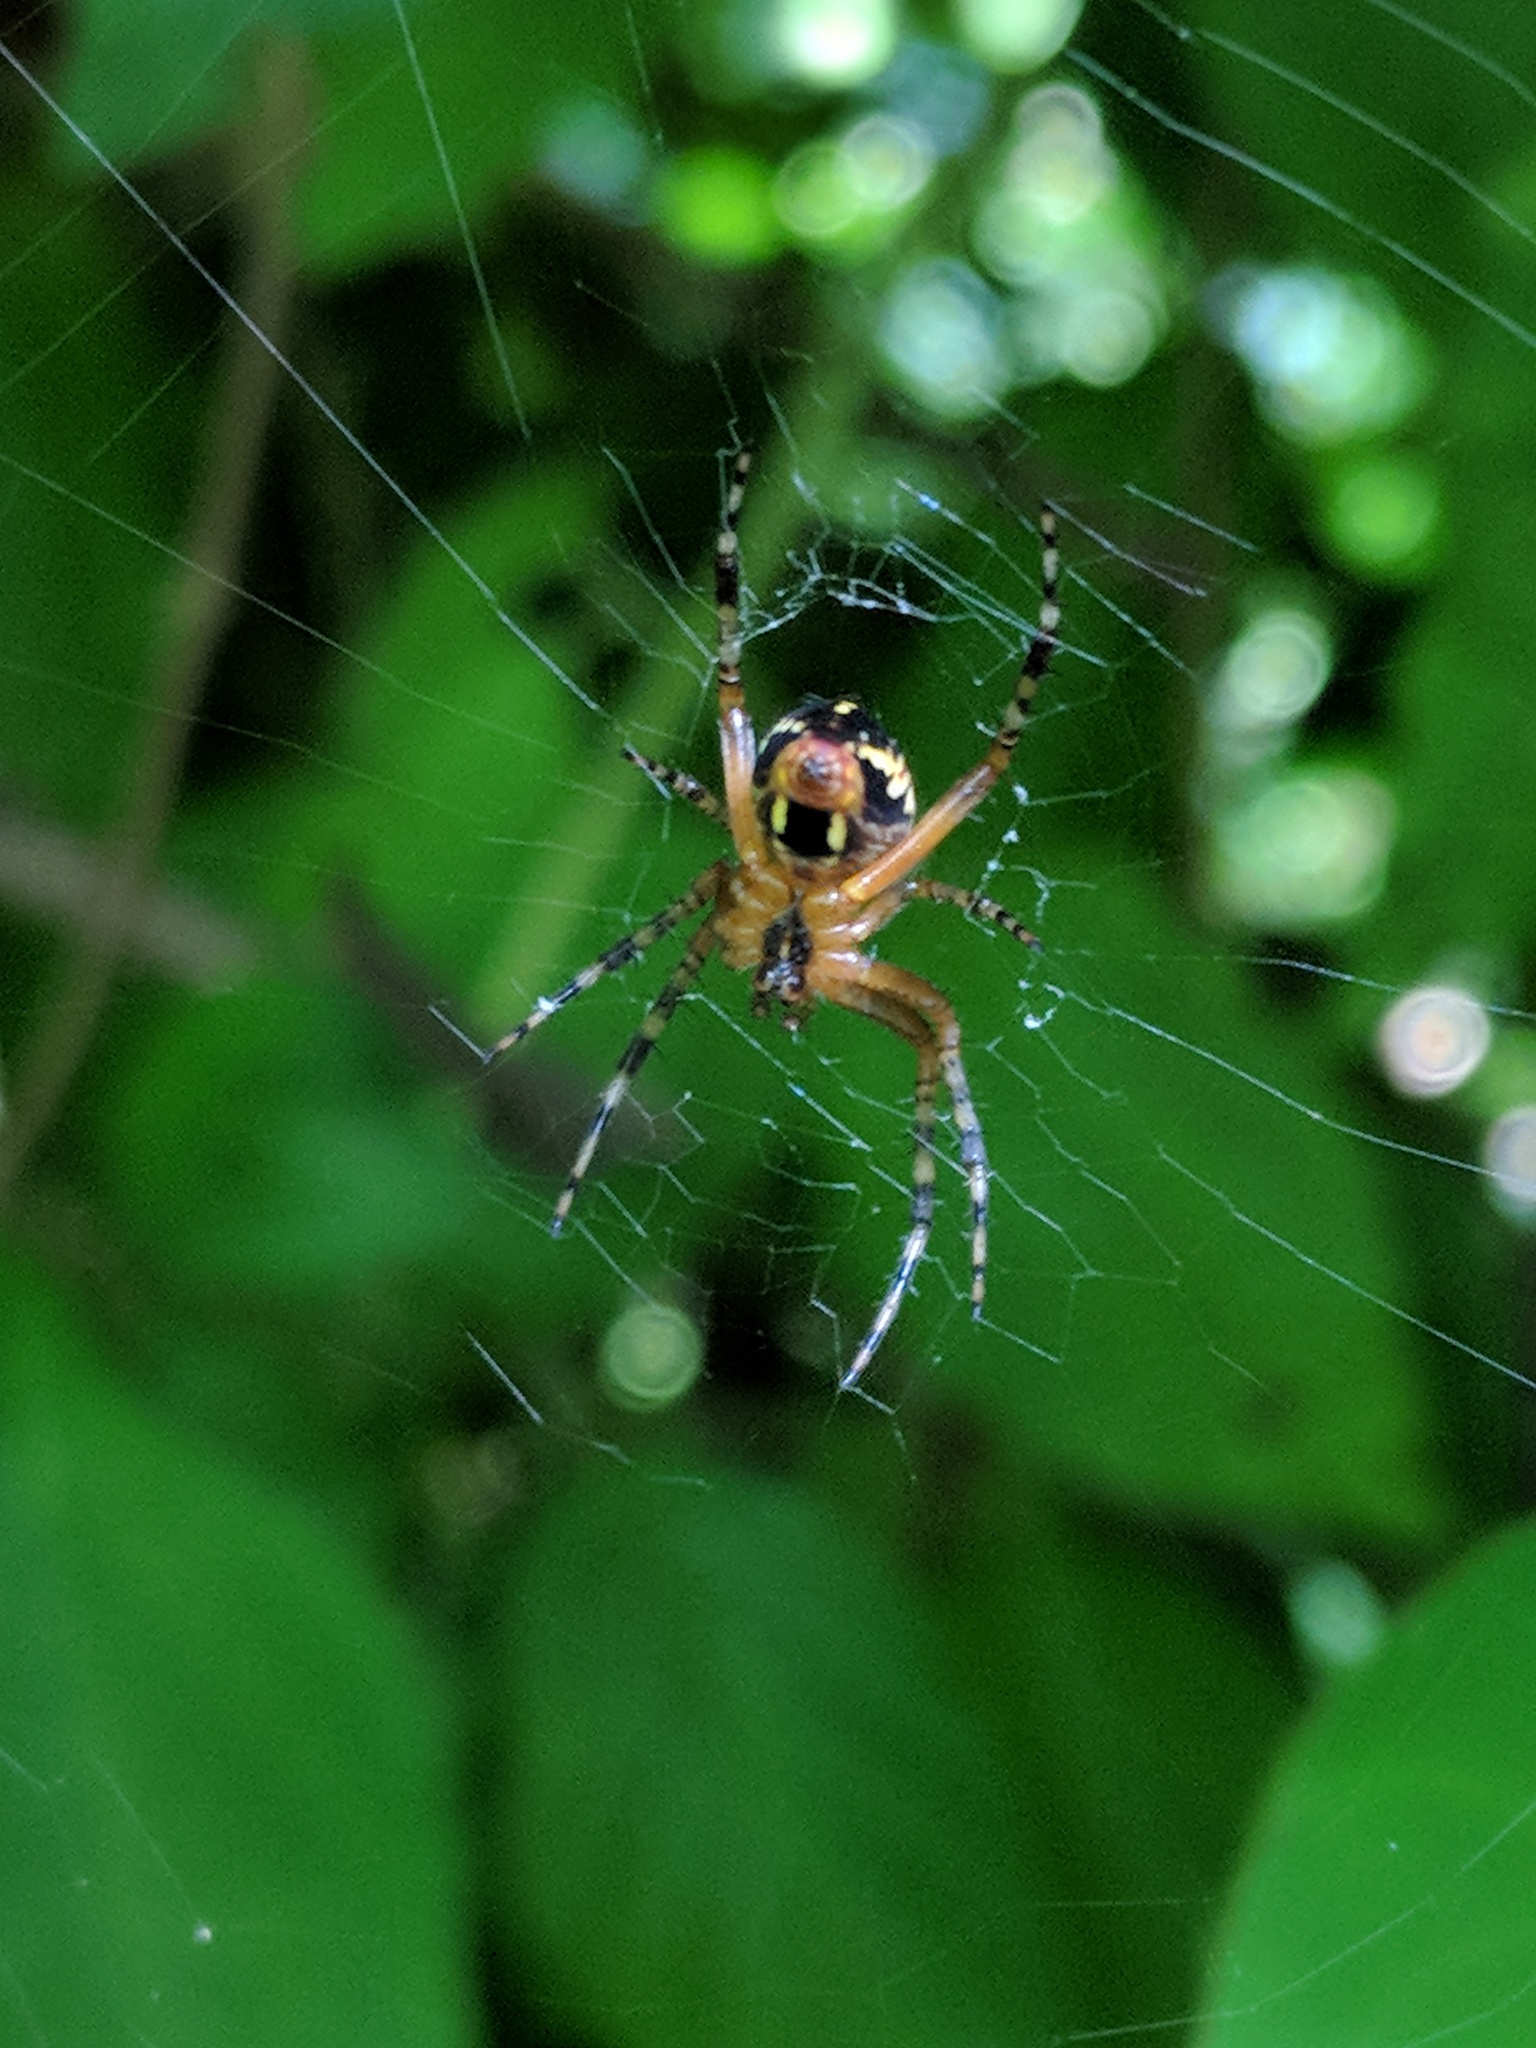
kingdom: Animalia
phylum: Arthropoda
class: Arachnida
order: Araneae
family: Araneidae
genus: Neoscona
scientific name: Neoscona oaxacensis
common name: Orb weavers
